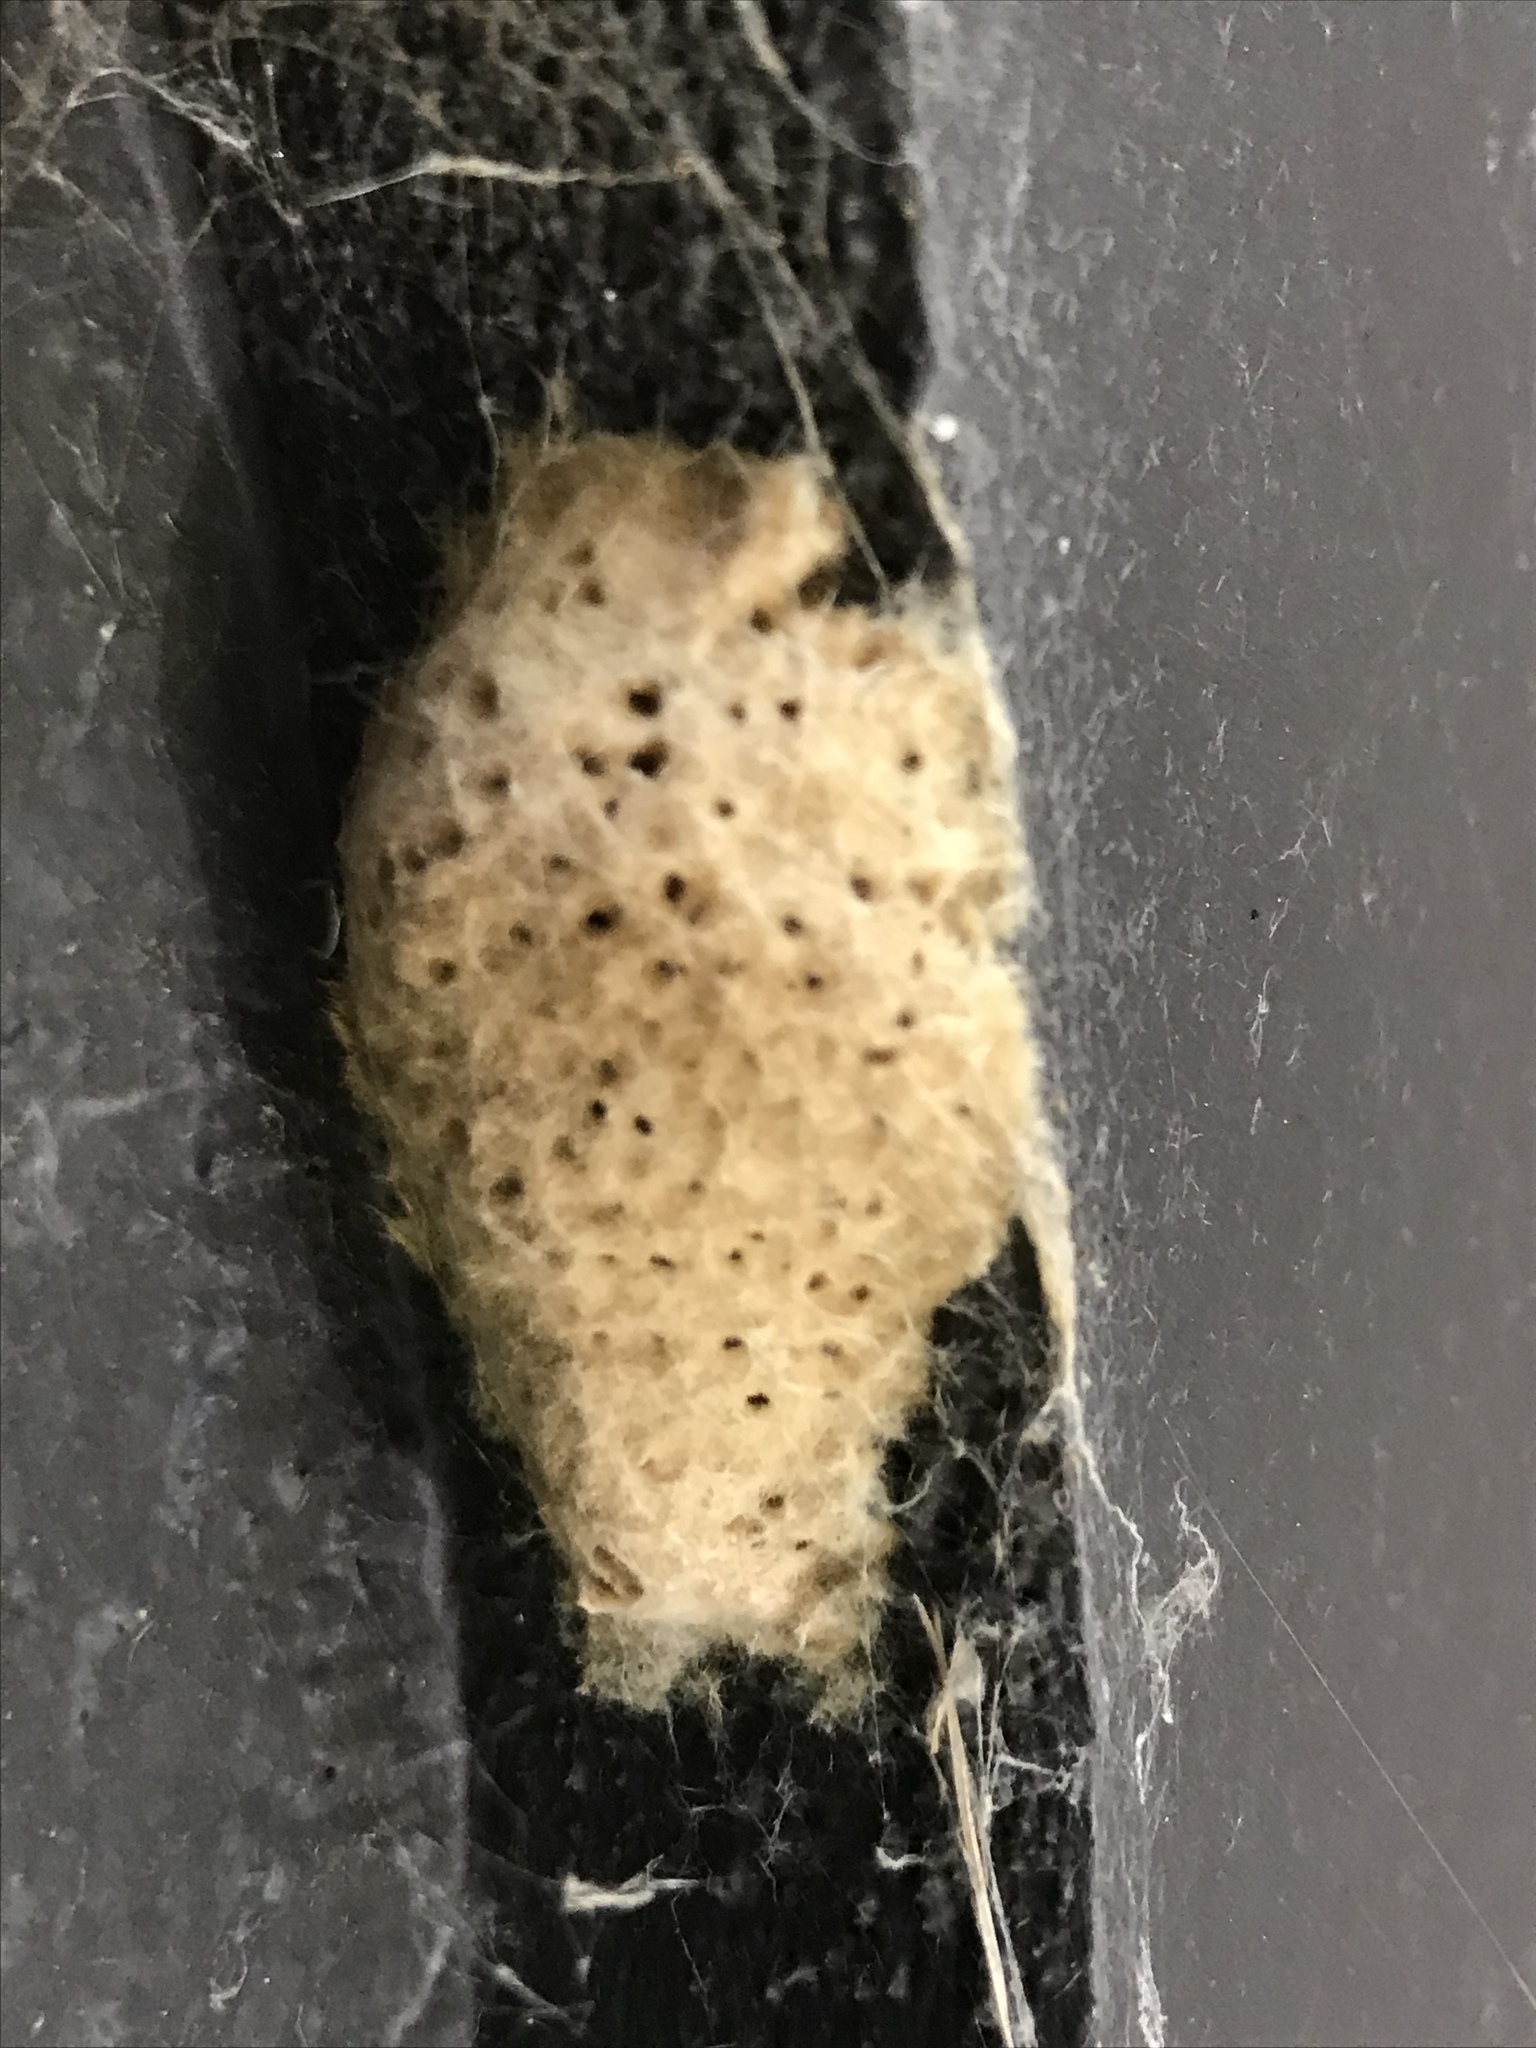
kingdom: Animalia
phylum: Arthropoda
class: Insecta
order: Lepidoptera
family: Erebidae
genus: Lymantria
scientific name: Lymantria dispar
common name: Gypsy moth
